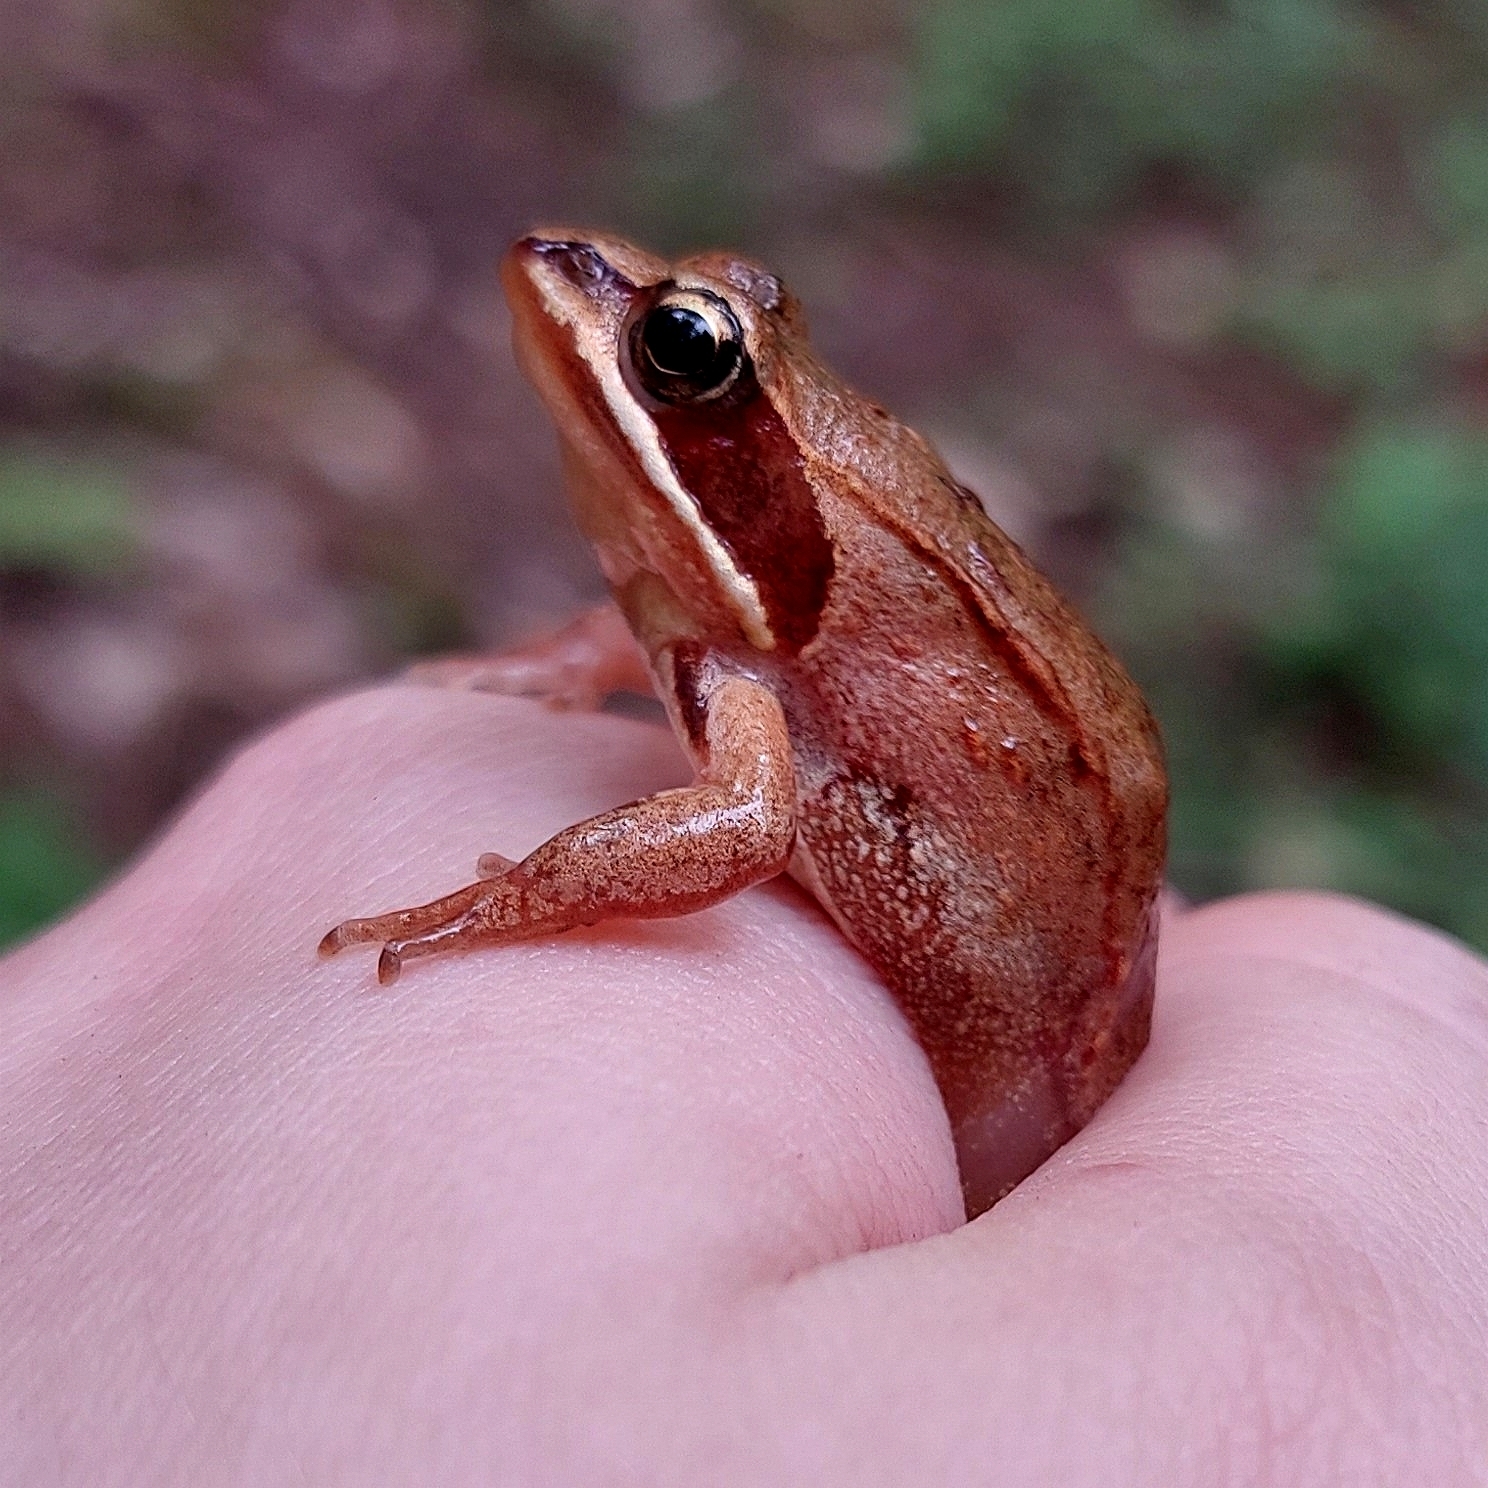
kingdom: Animalia
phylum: Chordata
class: Amphibia
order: Anura
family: Ranidae
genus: Rana
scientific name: Rana arvalis
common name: Moor frog
